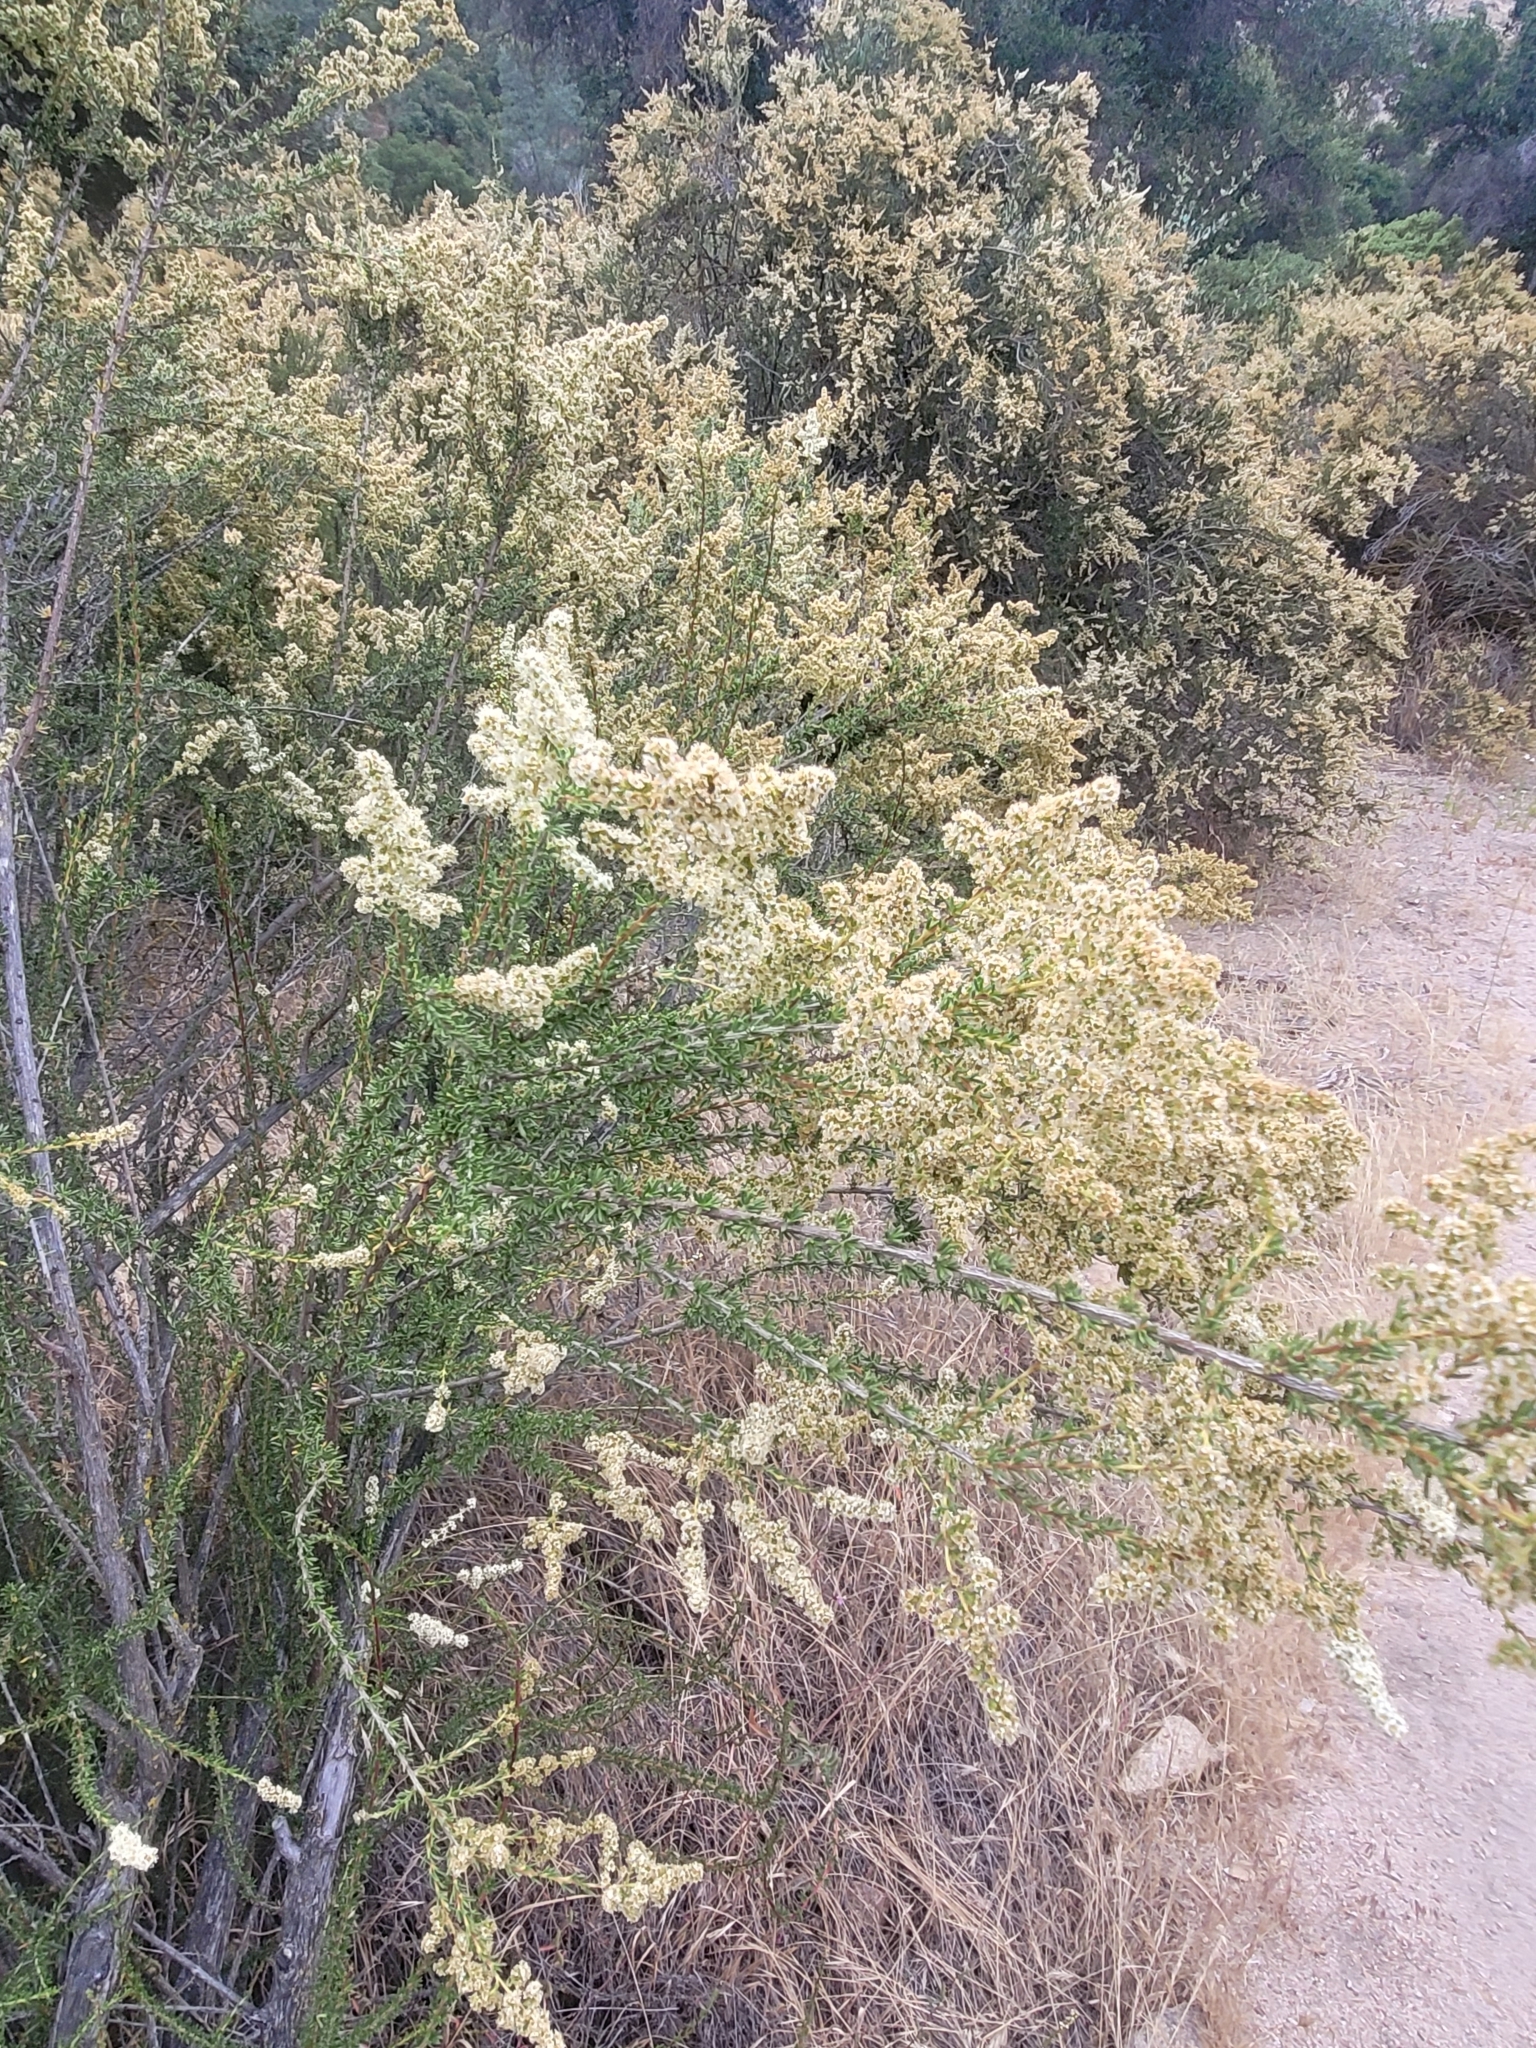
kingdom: Plantae
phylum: Tracheophyta
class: Magnoliopsida
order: Rosales
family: Rosaceae
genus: Adenostoma
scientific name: Adenostoma fasciculatum
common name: Chamise
